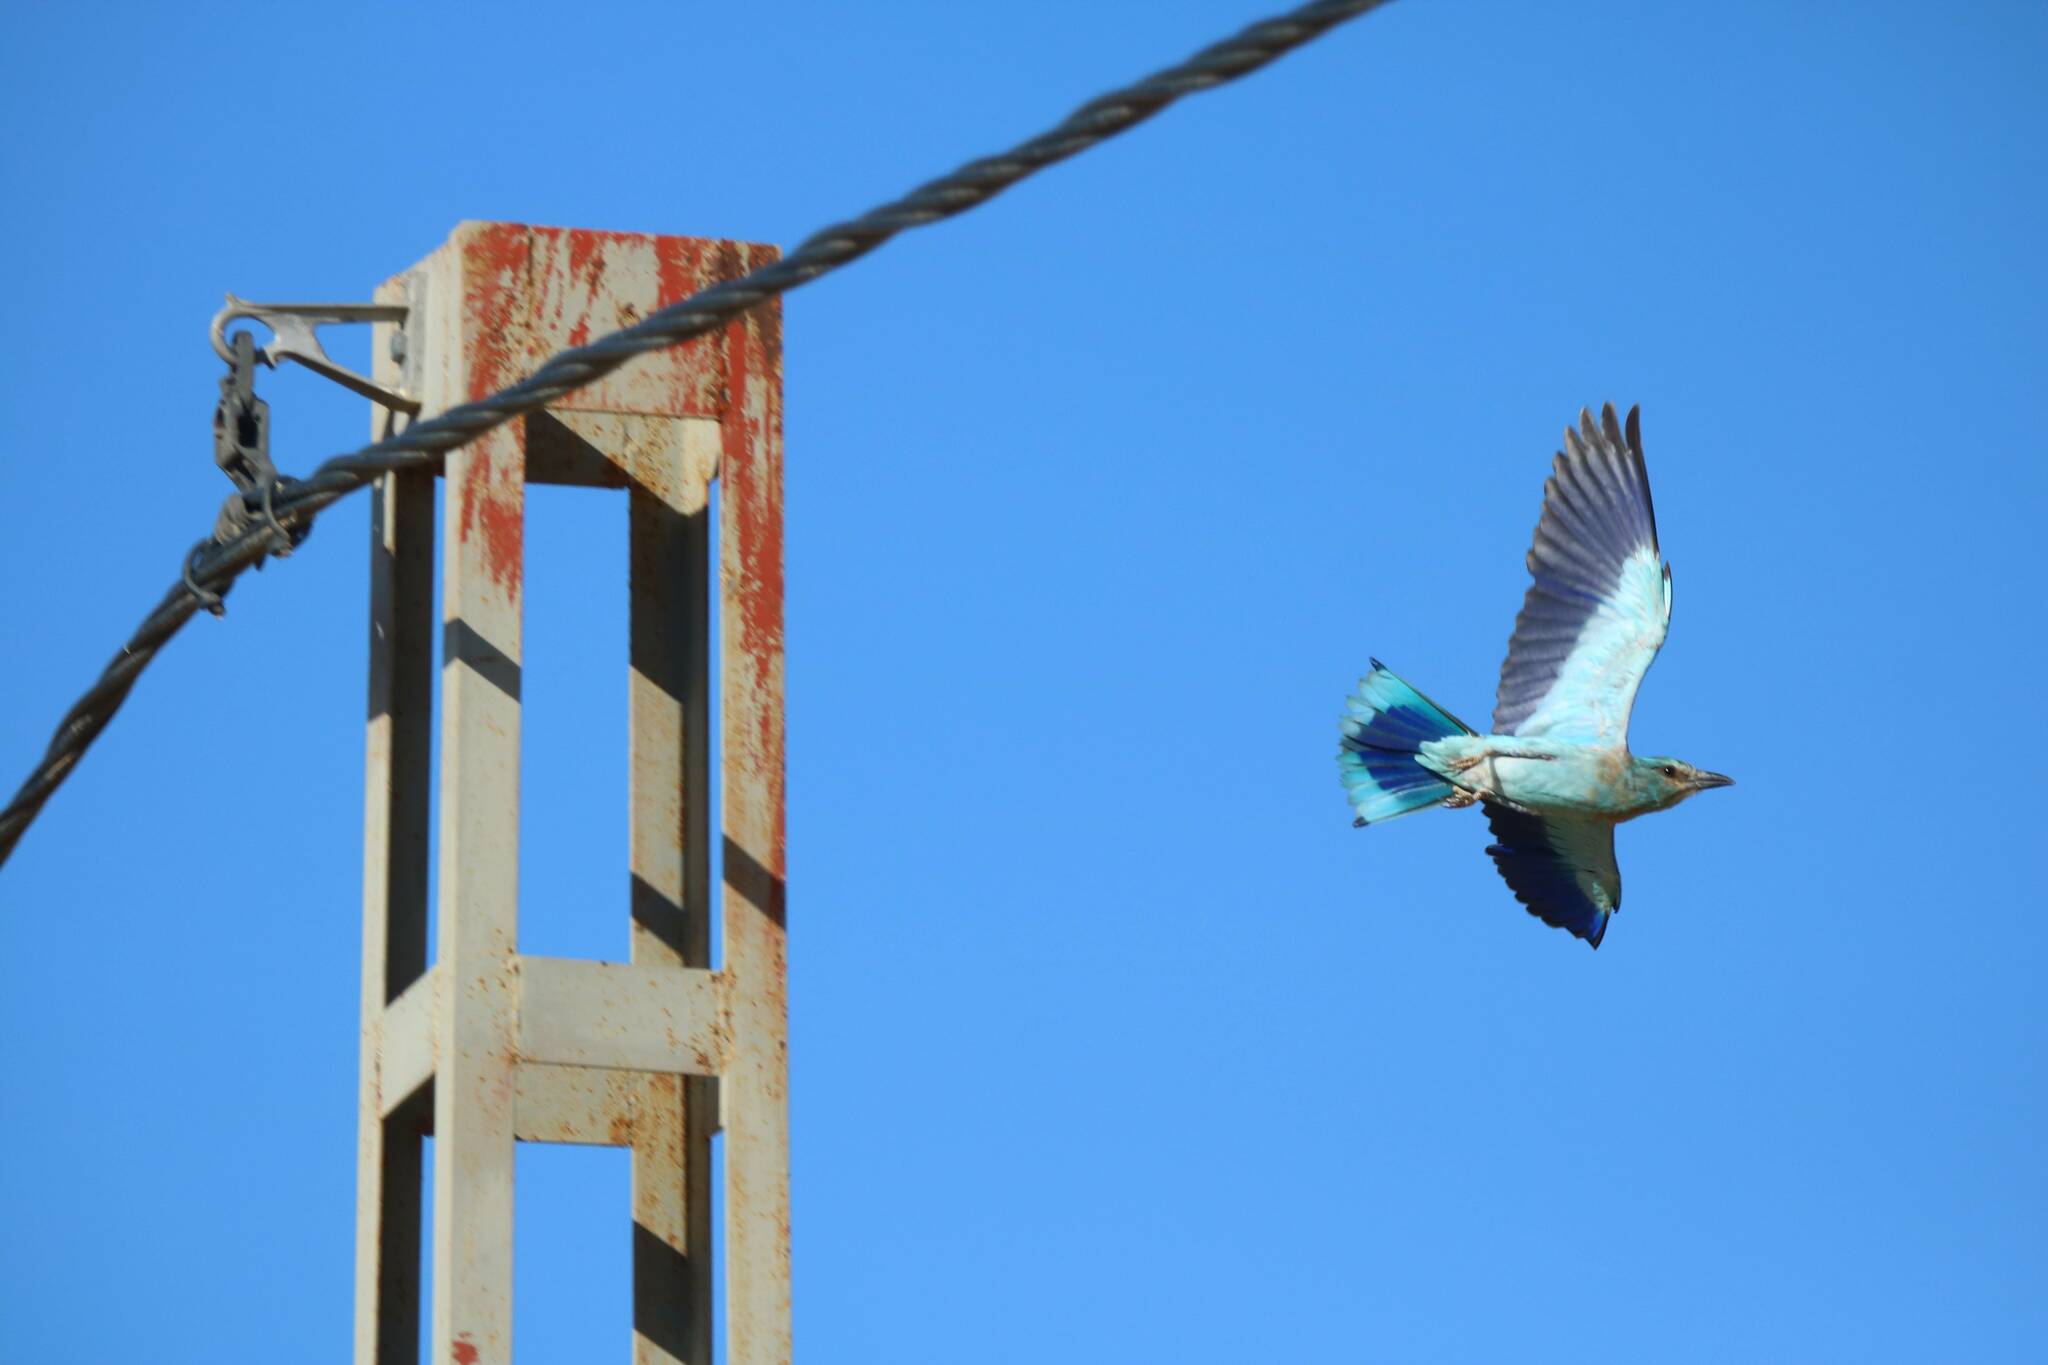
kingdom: Animalia
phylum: Chordata
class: Aves
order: Coraciiformes
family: Coraciidae
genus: Coracias
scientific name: Coracias garrulus
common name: European roller
